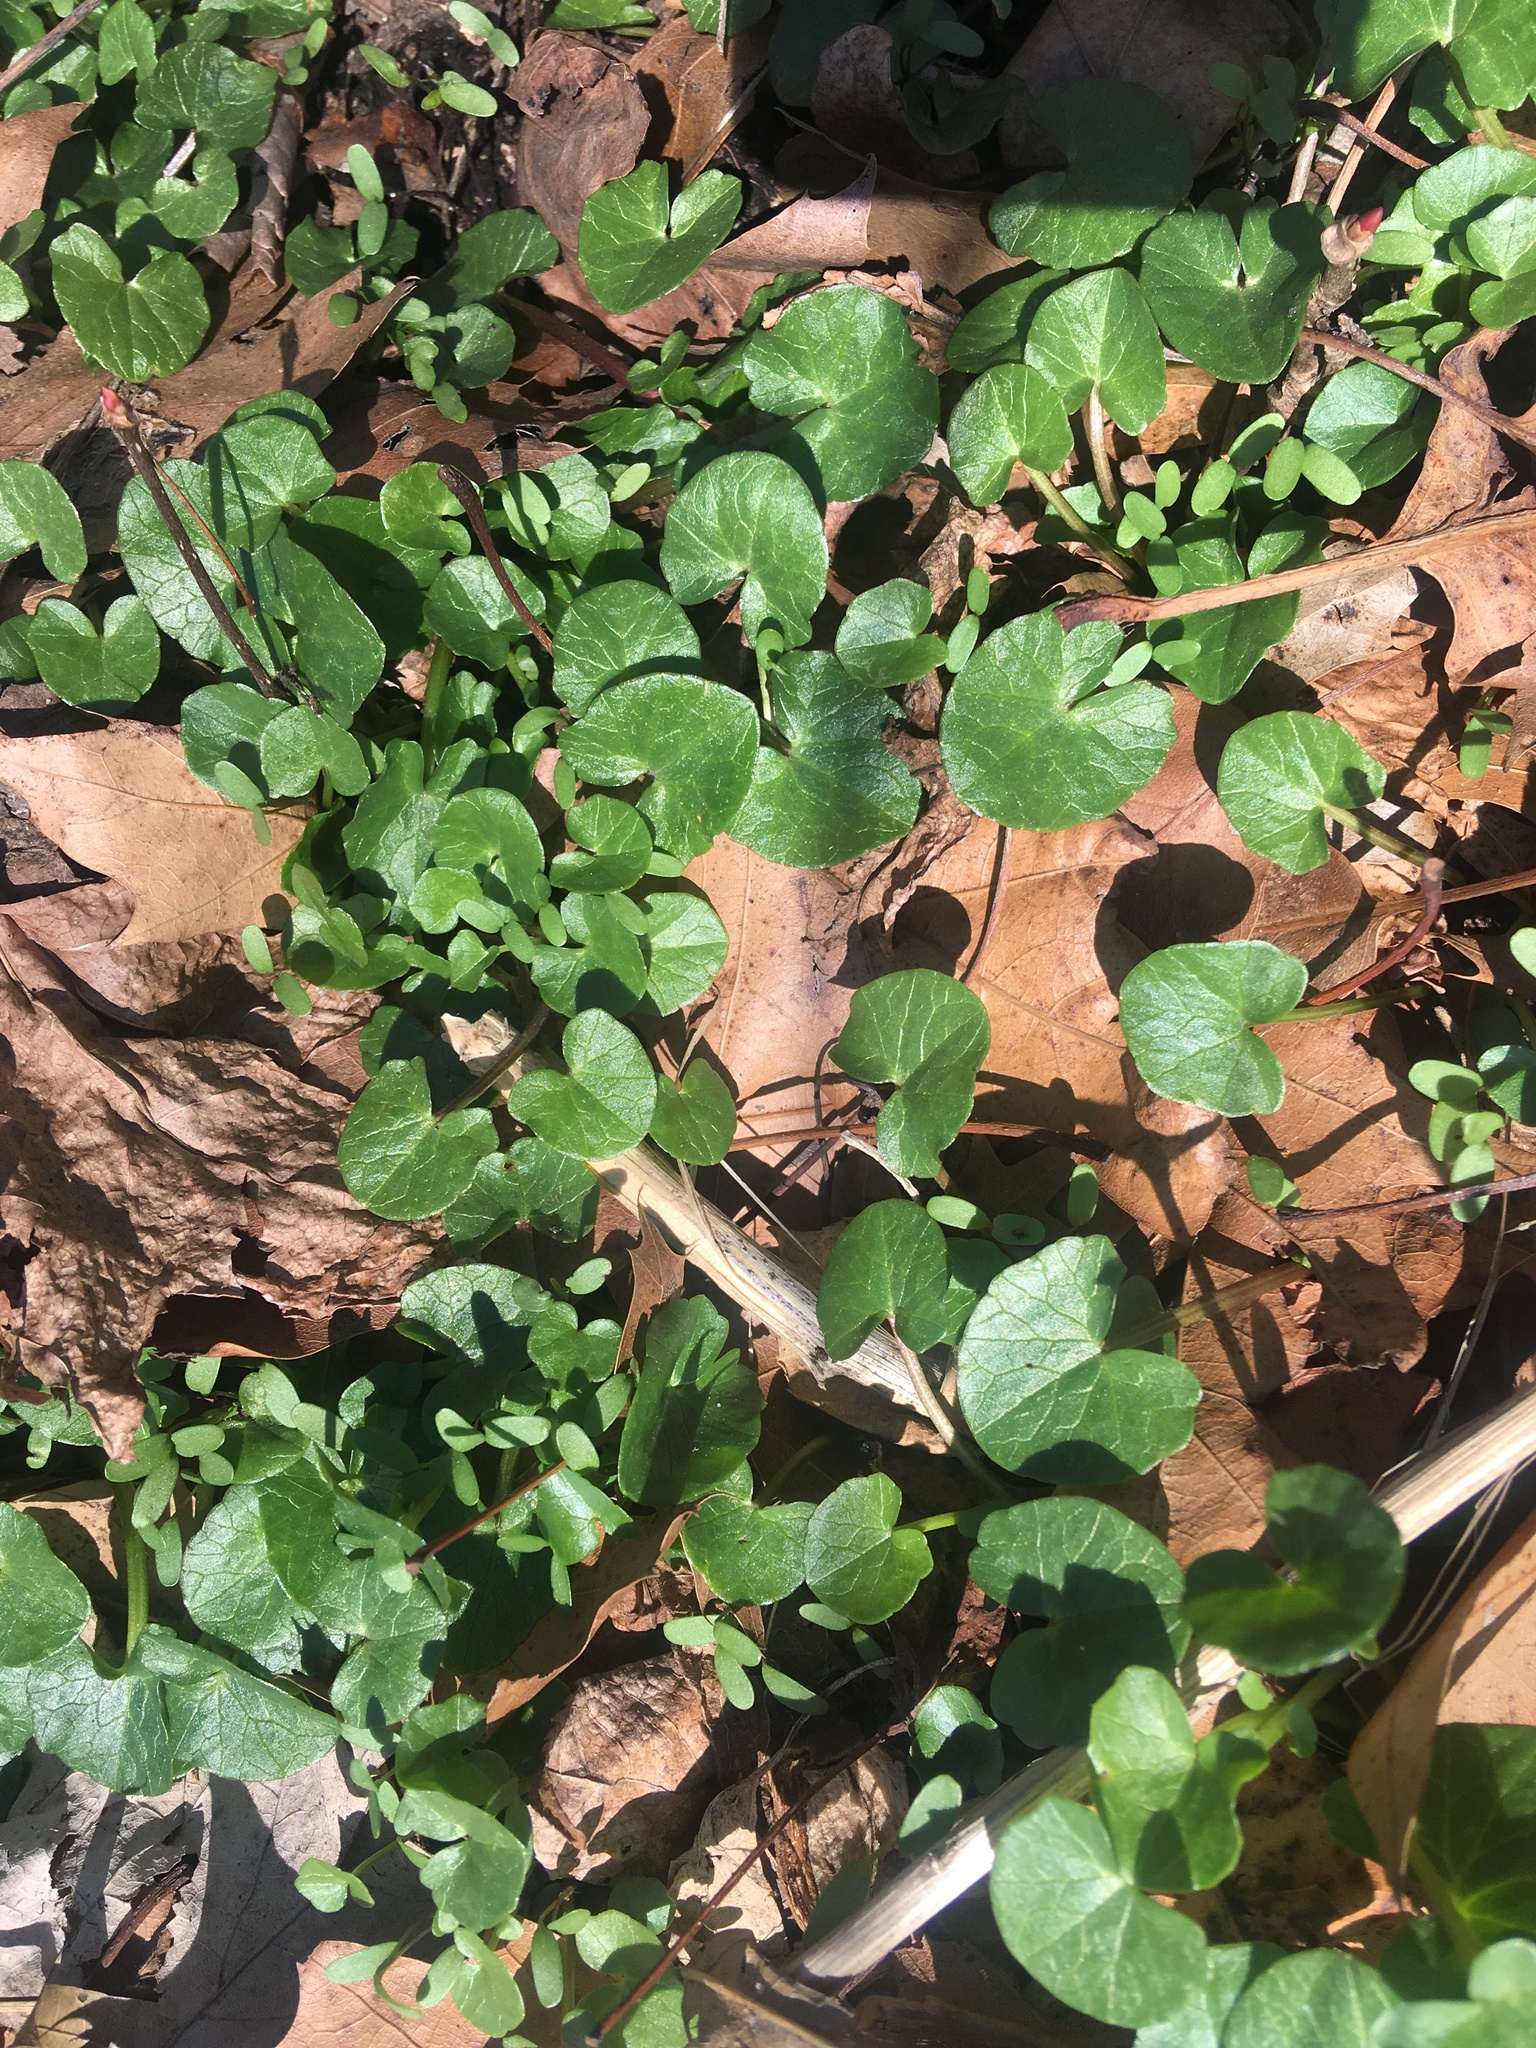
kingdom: Plantae
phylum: Tracheophyta
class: Magnoliopsida
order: Ranunculales
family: Ranunculaceae
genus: Ficaria
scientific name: Ficaria verna
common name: Lesser celandine
